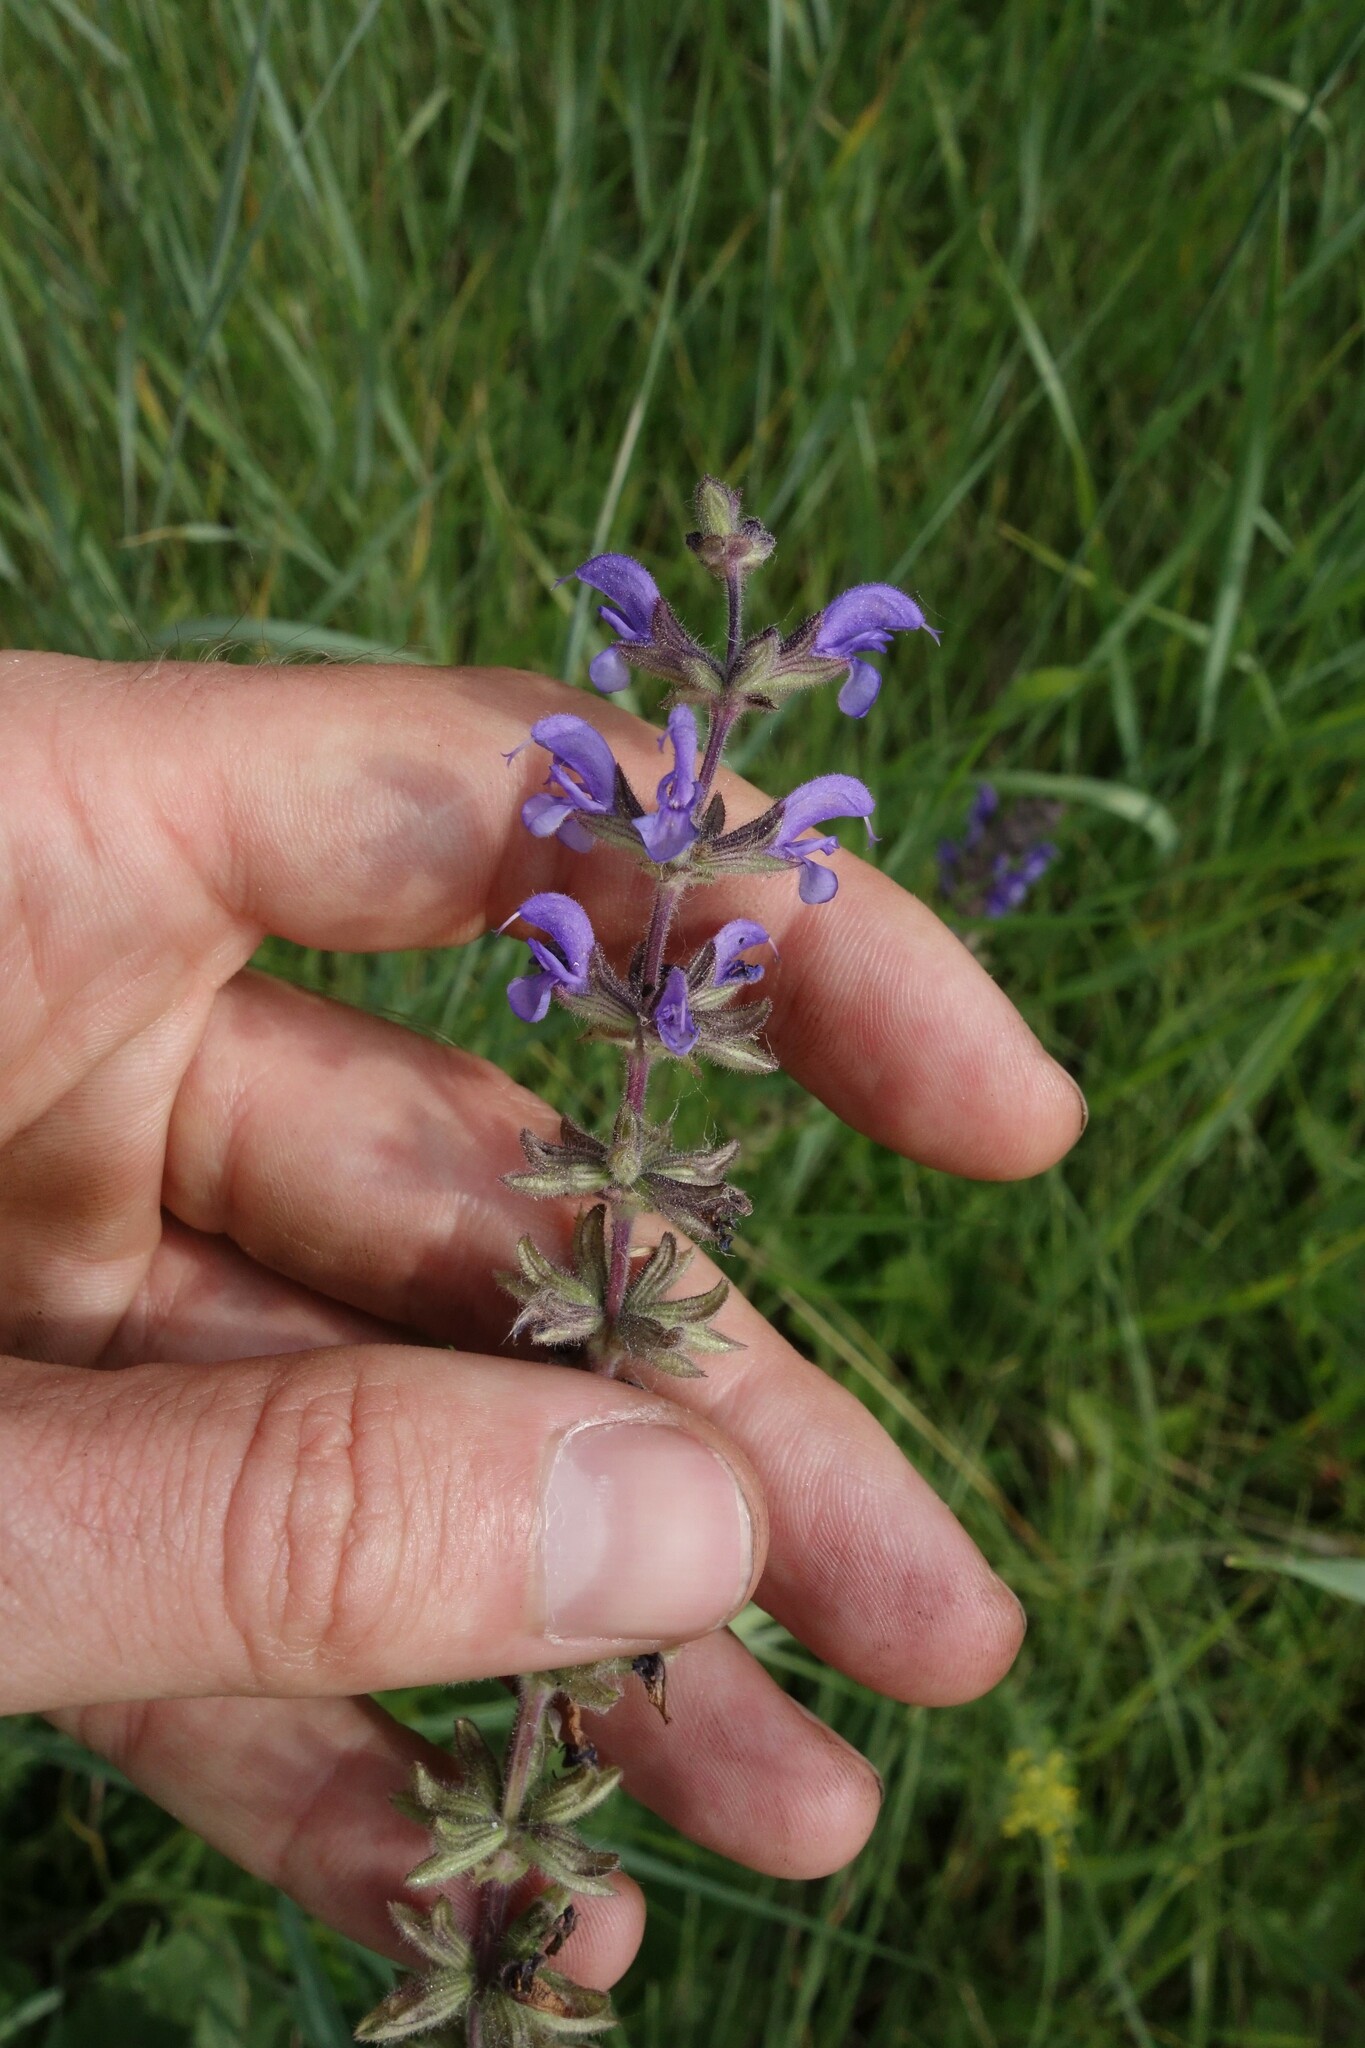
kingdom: Plantae
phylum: Tracheophyta
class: Magnoliopsida
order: Lamiales
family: Lamiaceae
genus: Salvia
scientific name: Salvia dumetorum
